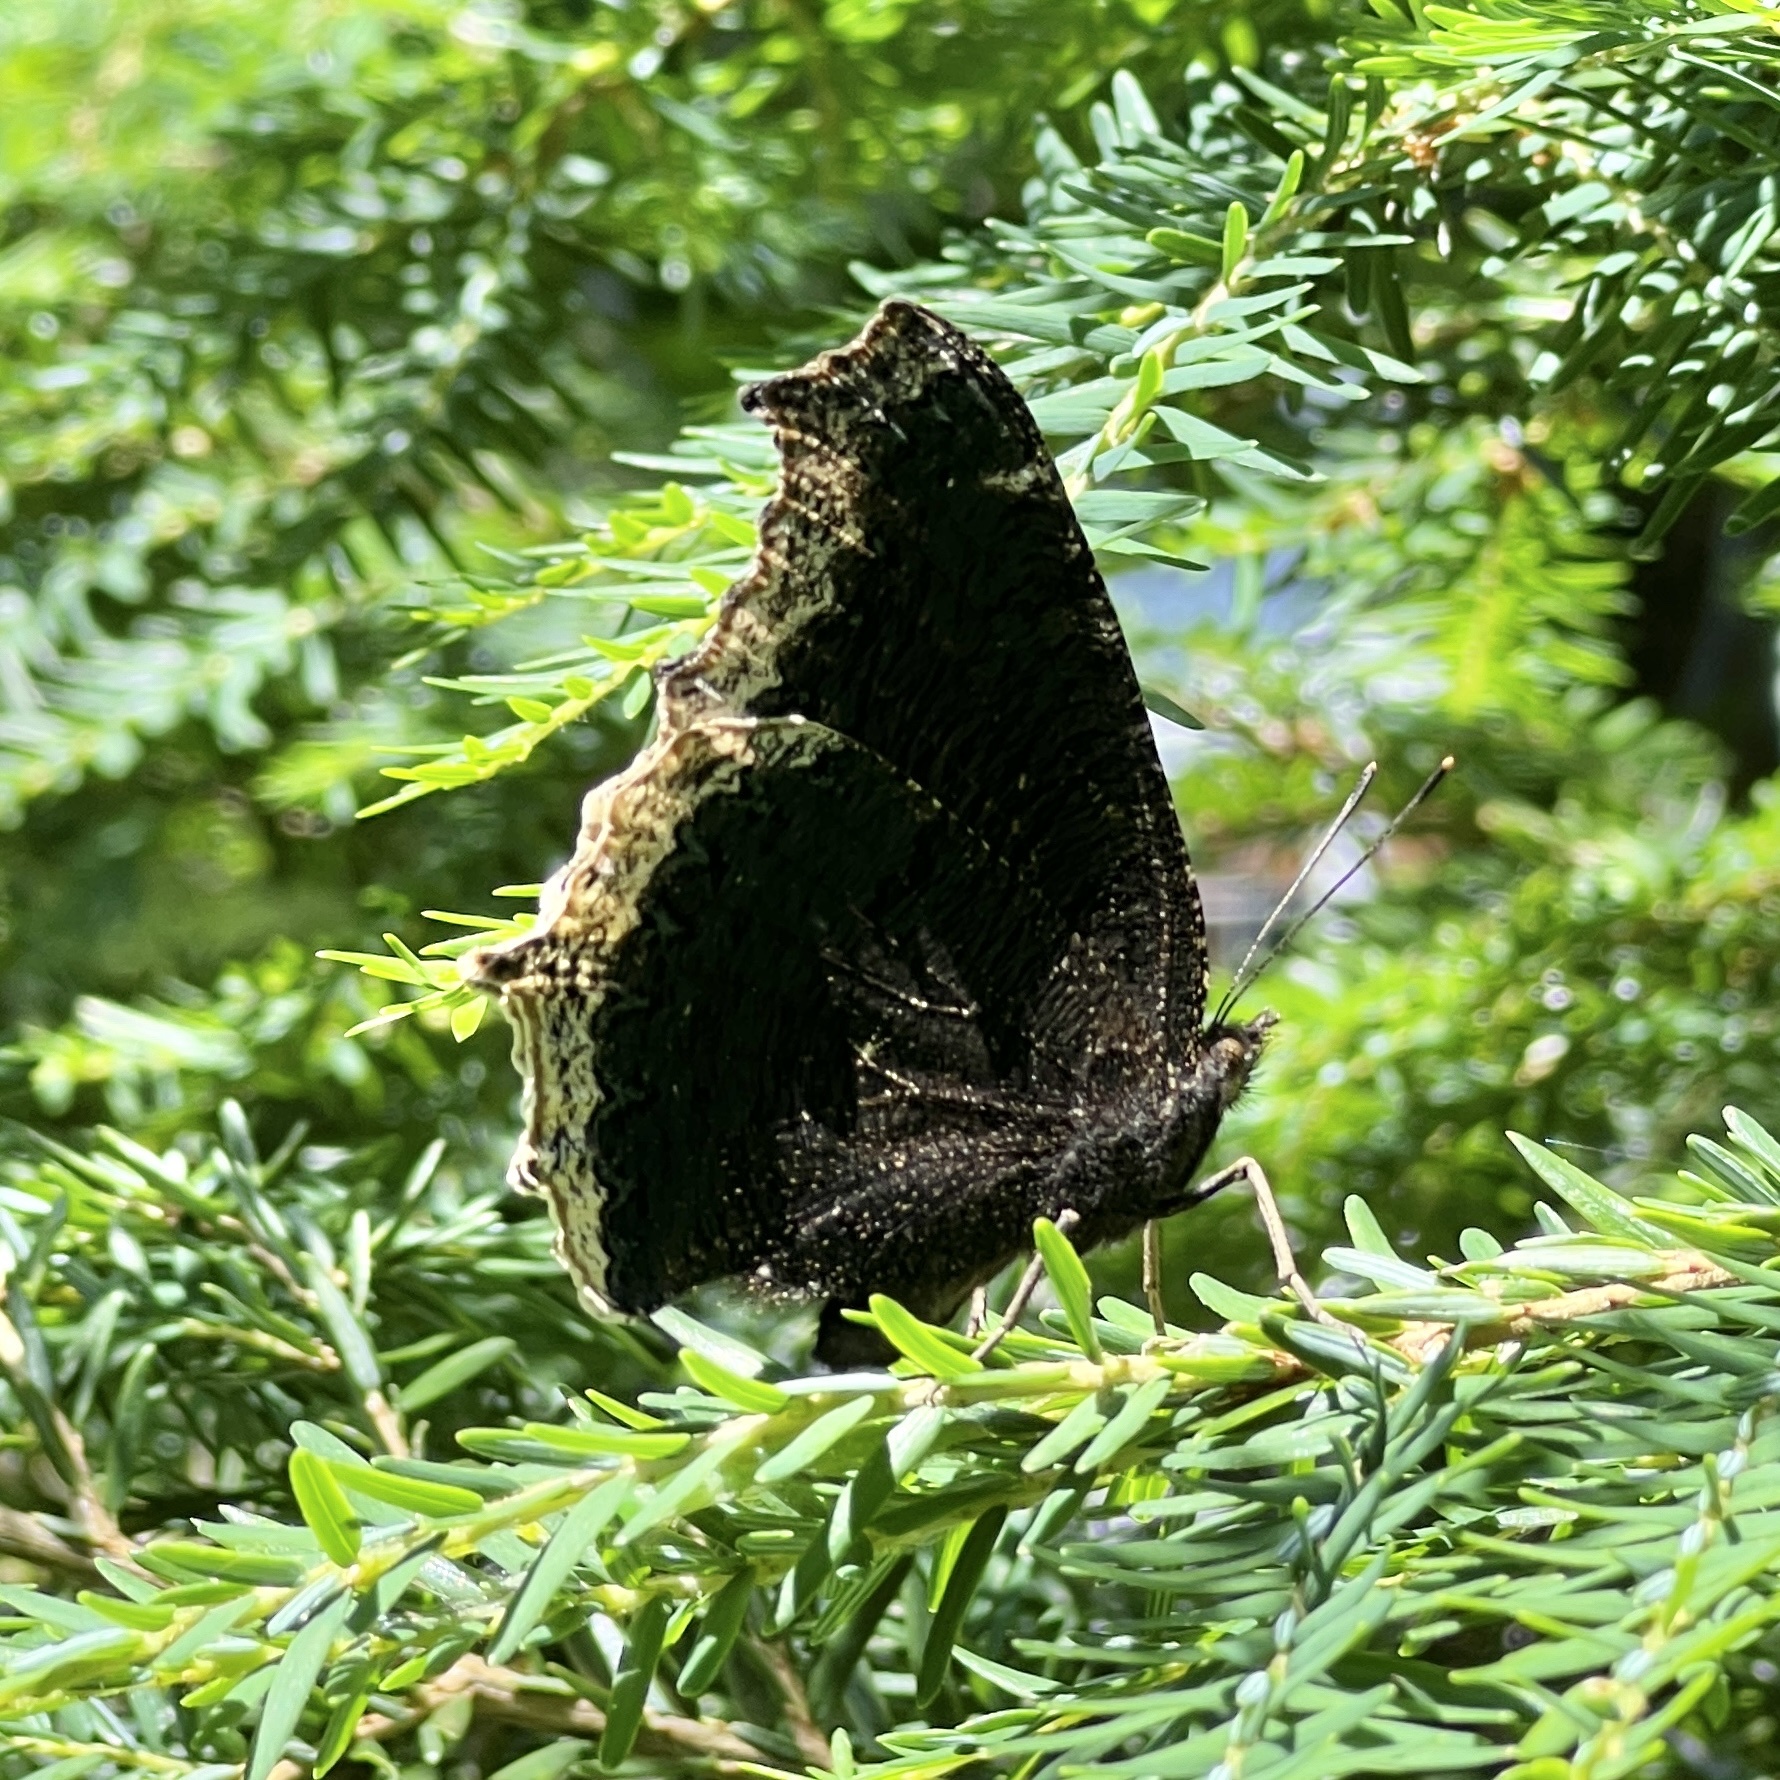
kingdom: Animalia
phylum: Arthropoda
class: Insecta
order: Lepidoptera
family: Nymphalidae
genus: Nymphalis
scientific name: Nymphalis antiopa
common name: Camberwell beauty
